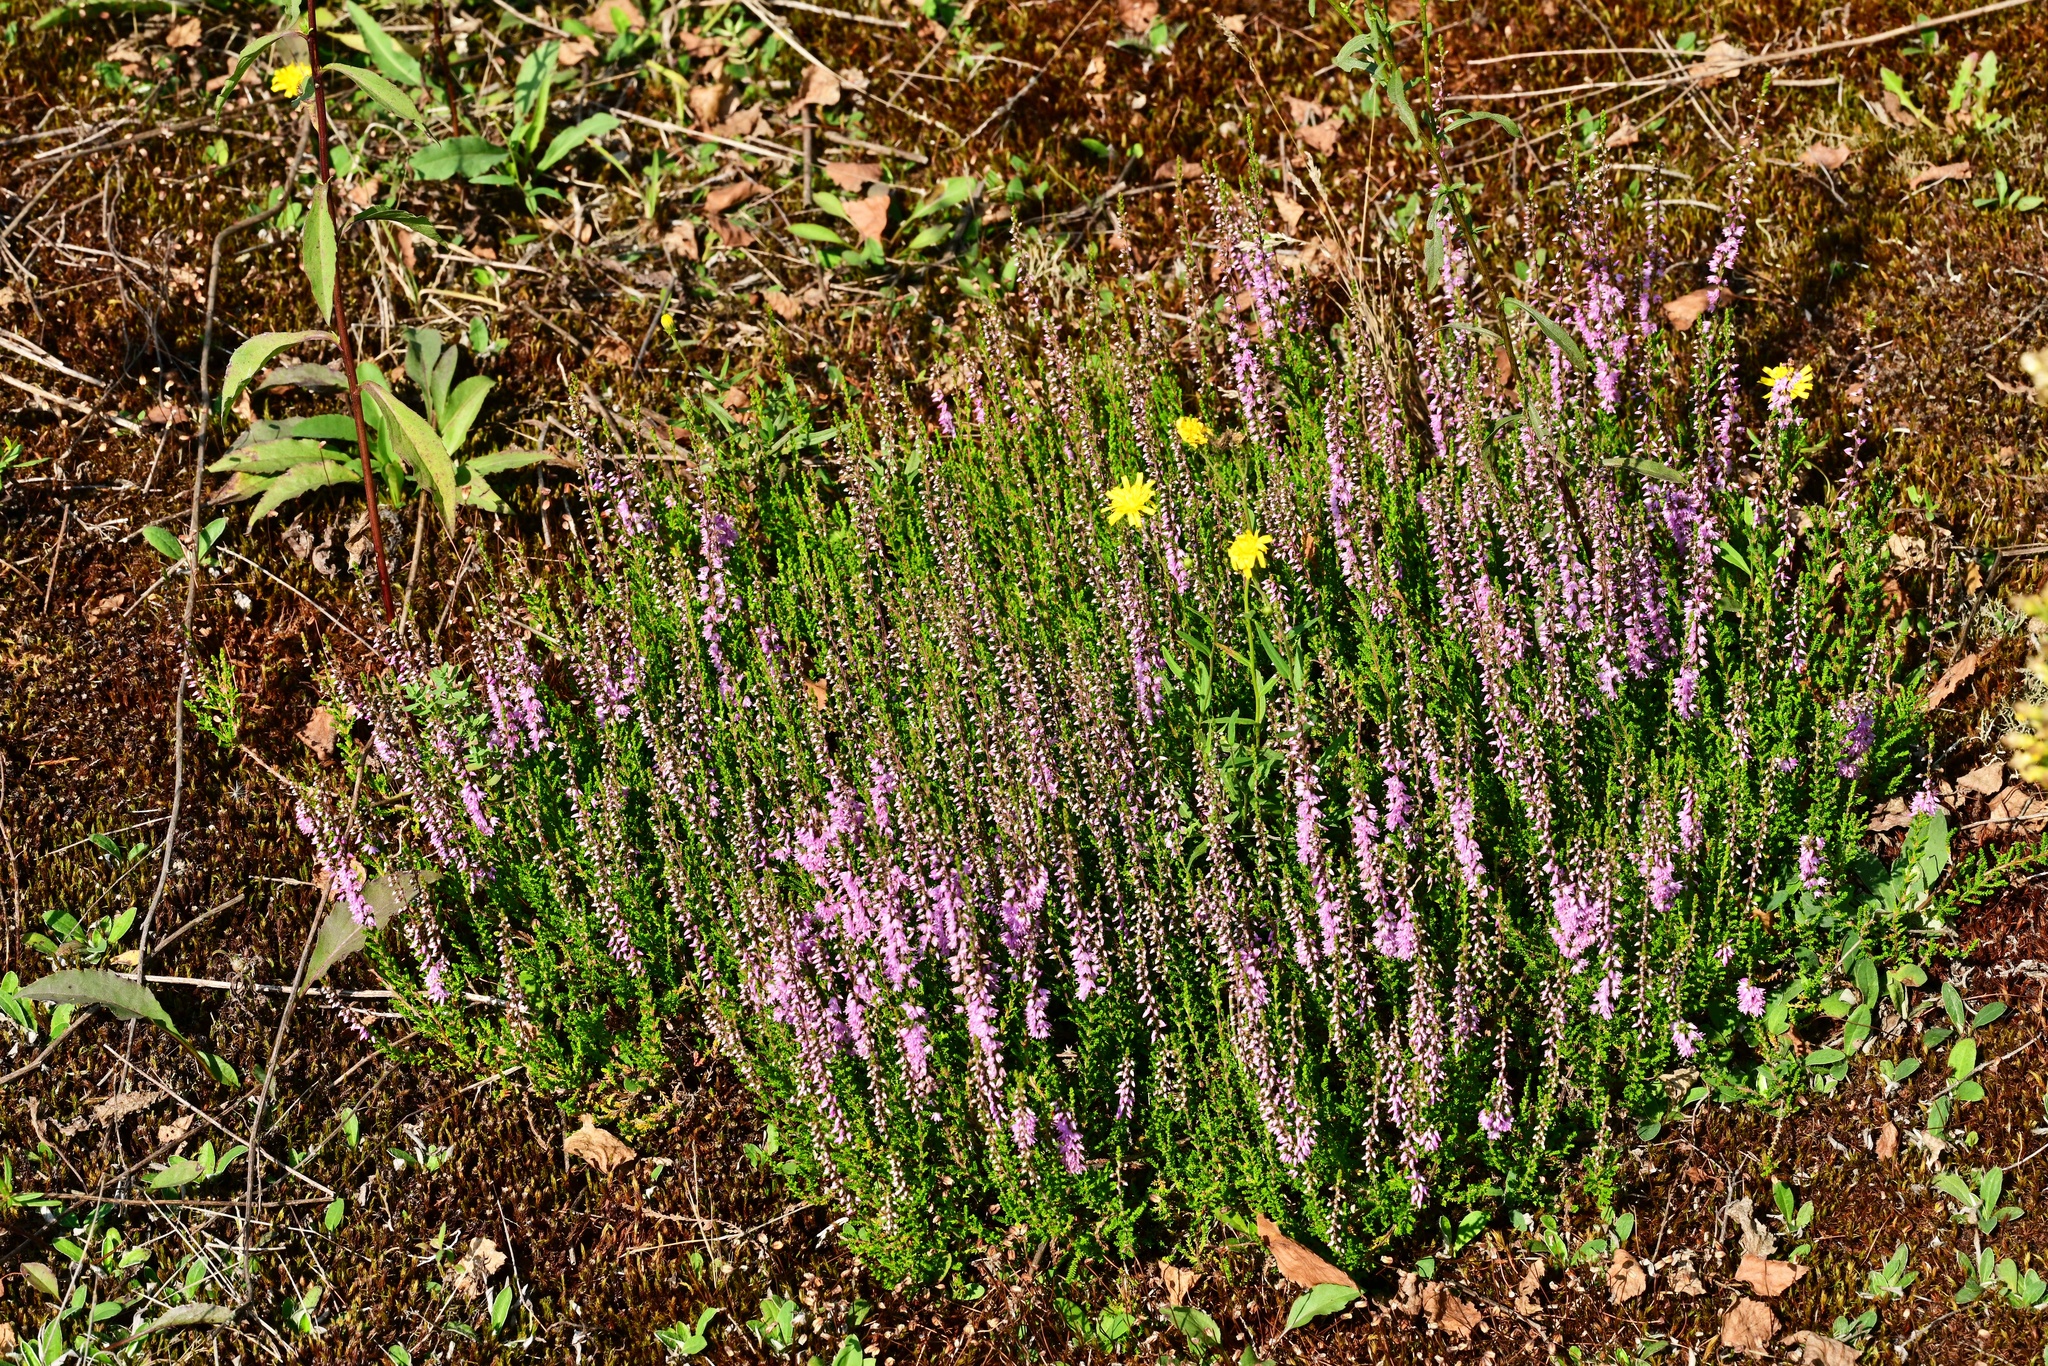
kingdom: Plantae
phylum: Tracheophyta
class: Magnoliopsida
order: Ericales
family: Ericaceae
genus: Calluna
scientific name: Calluna vulgaris
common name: Heather
